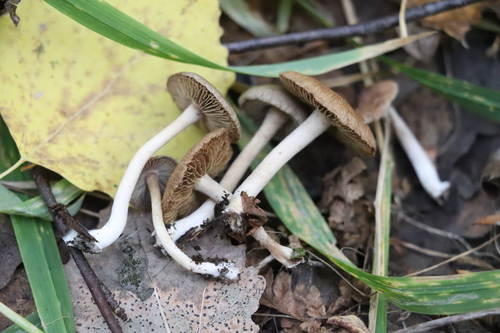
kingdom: Fungi
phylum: Basidiomycota
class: Agaricomycetes
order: Agaricales
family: Inocybaceae
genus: Inocybe
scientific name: Inocybe
